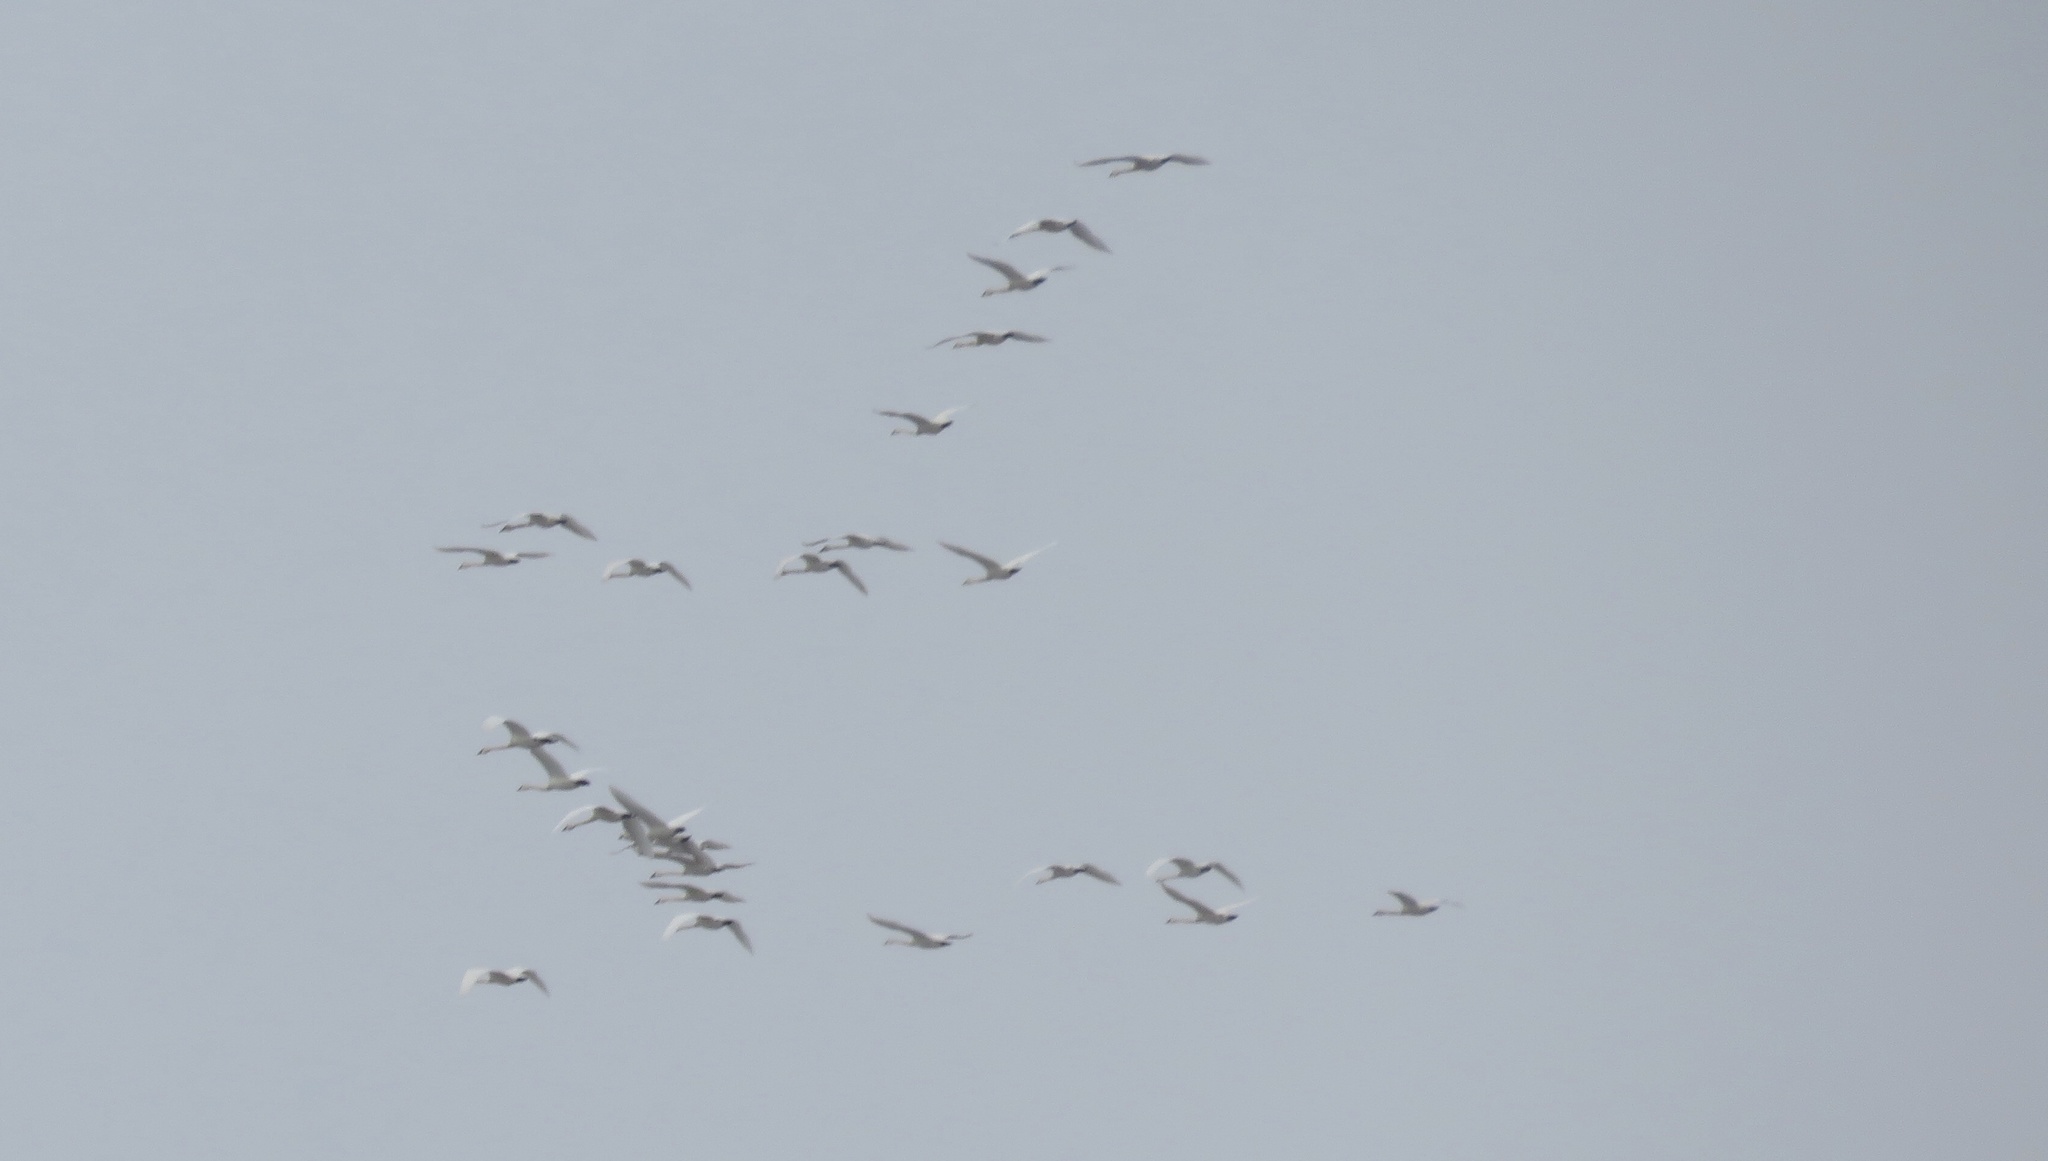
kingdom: Animalia
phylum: Chordata
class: Aves
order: Anseriformes
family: Anatidae
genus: Cygnus
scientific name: Cygnus columbianus
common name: Tundra swan
